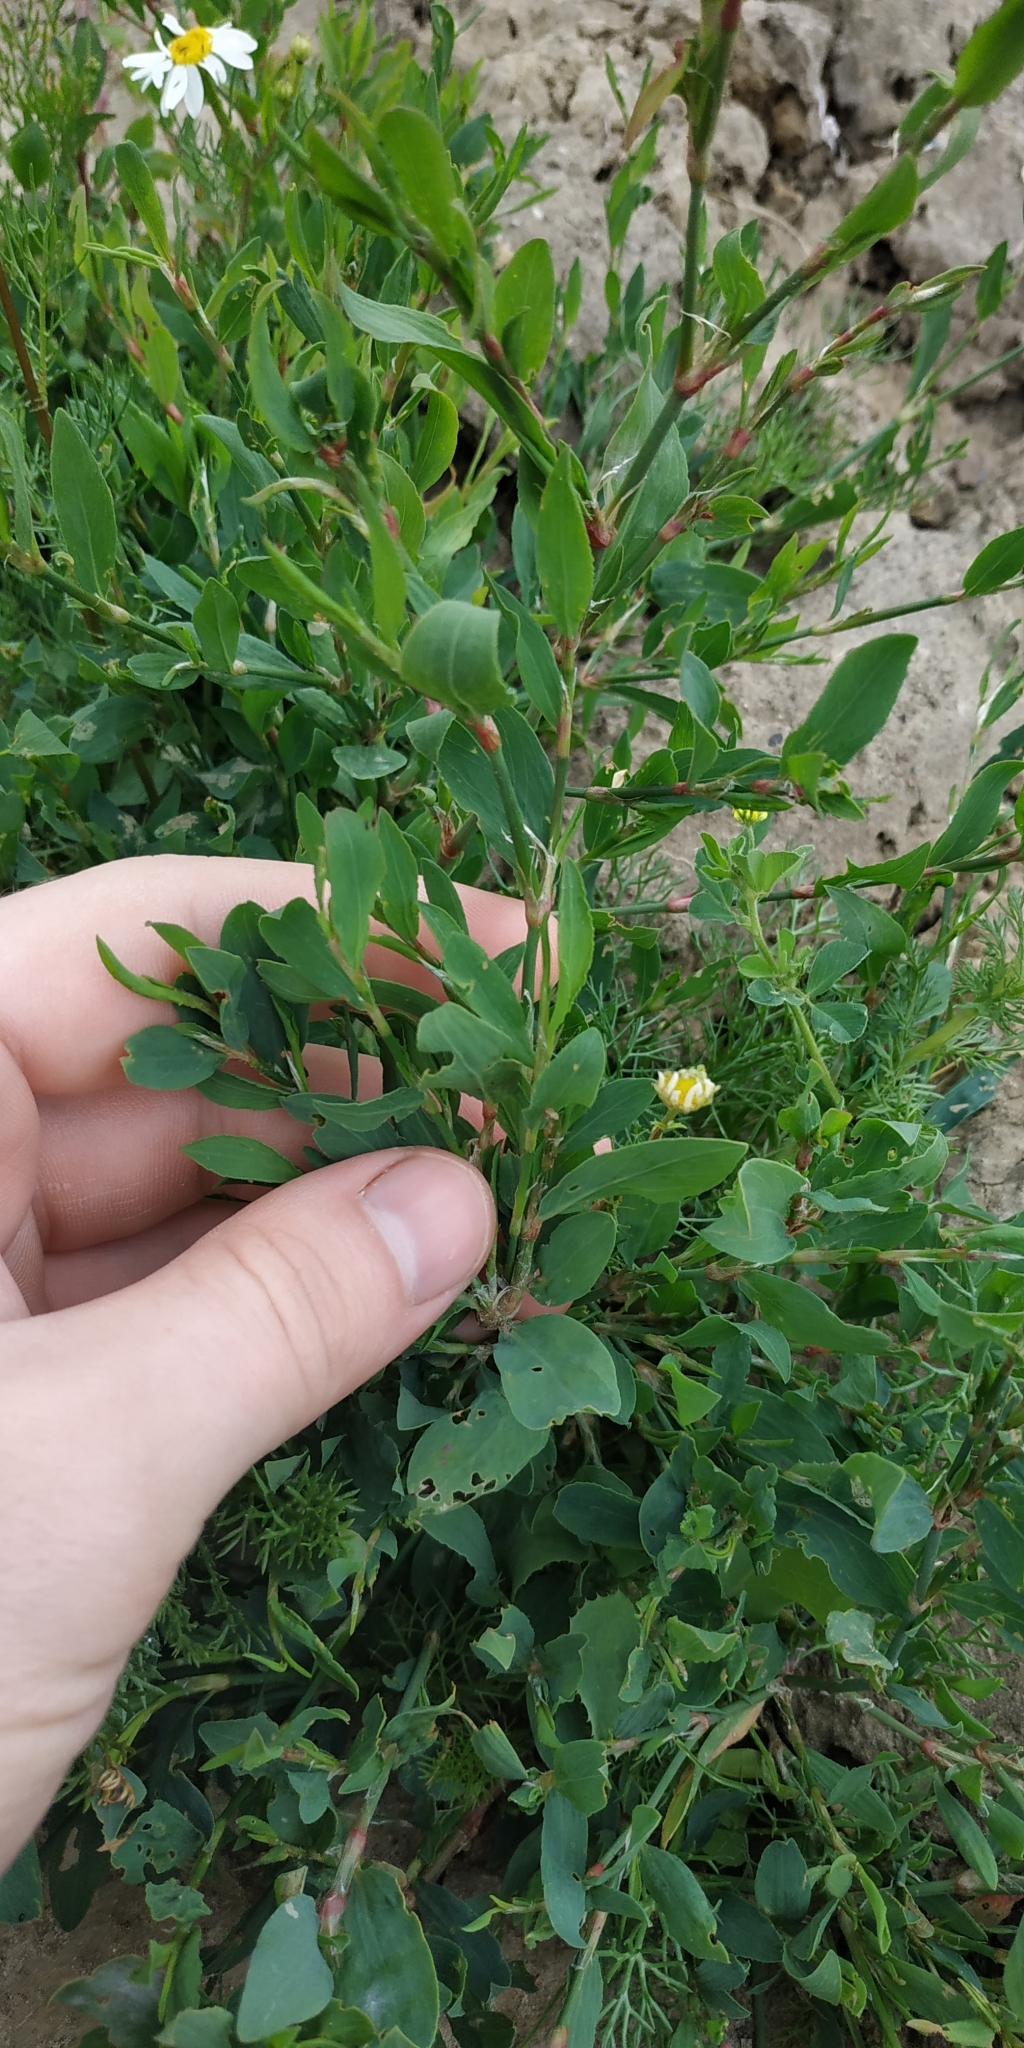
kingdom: Plantae
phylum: Tracheophyta
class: Magnoliopsida
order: Caryophyllales
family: Polygonaceae
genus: Polygonum
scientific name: Polygonum aviculare
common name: Prostrate knotweed
